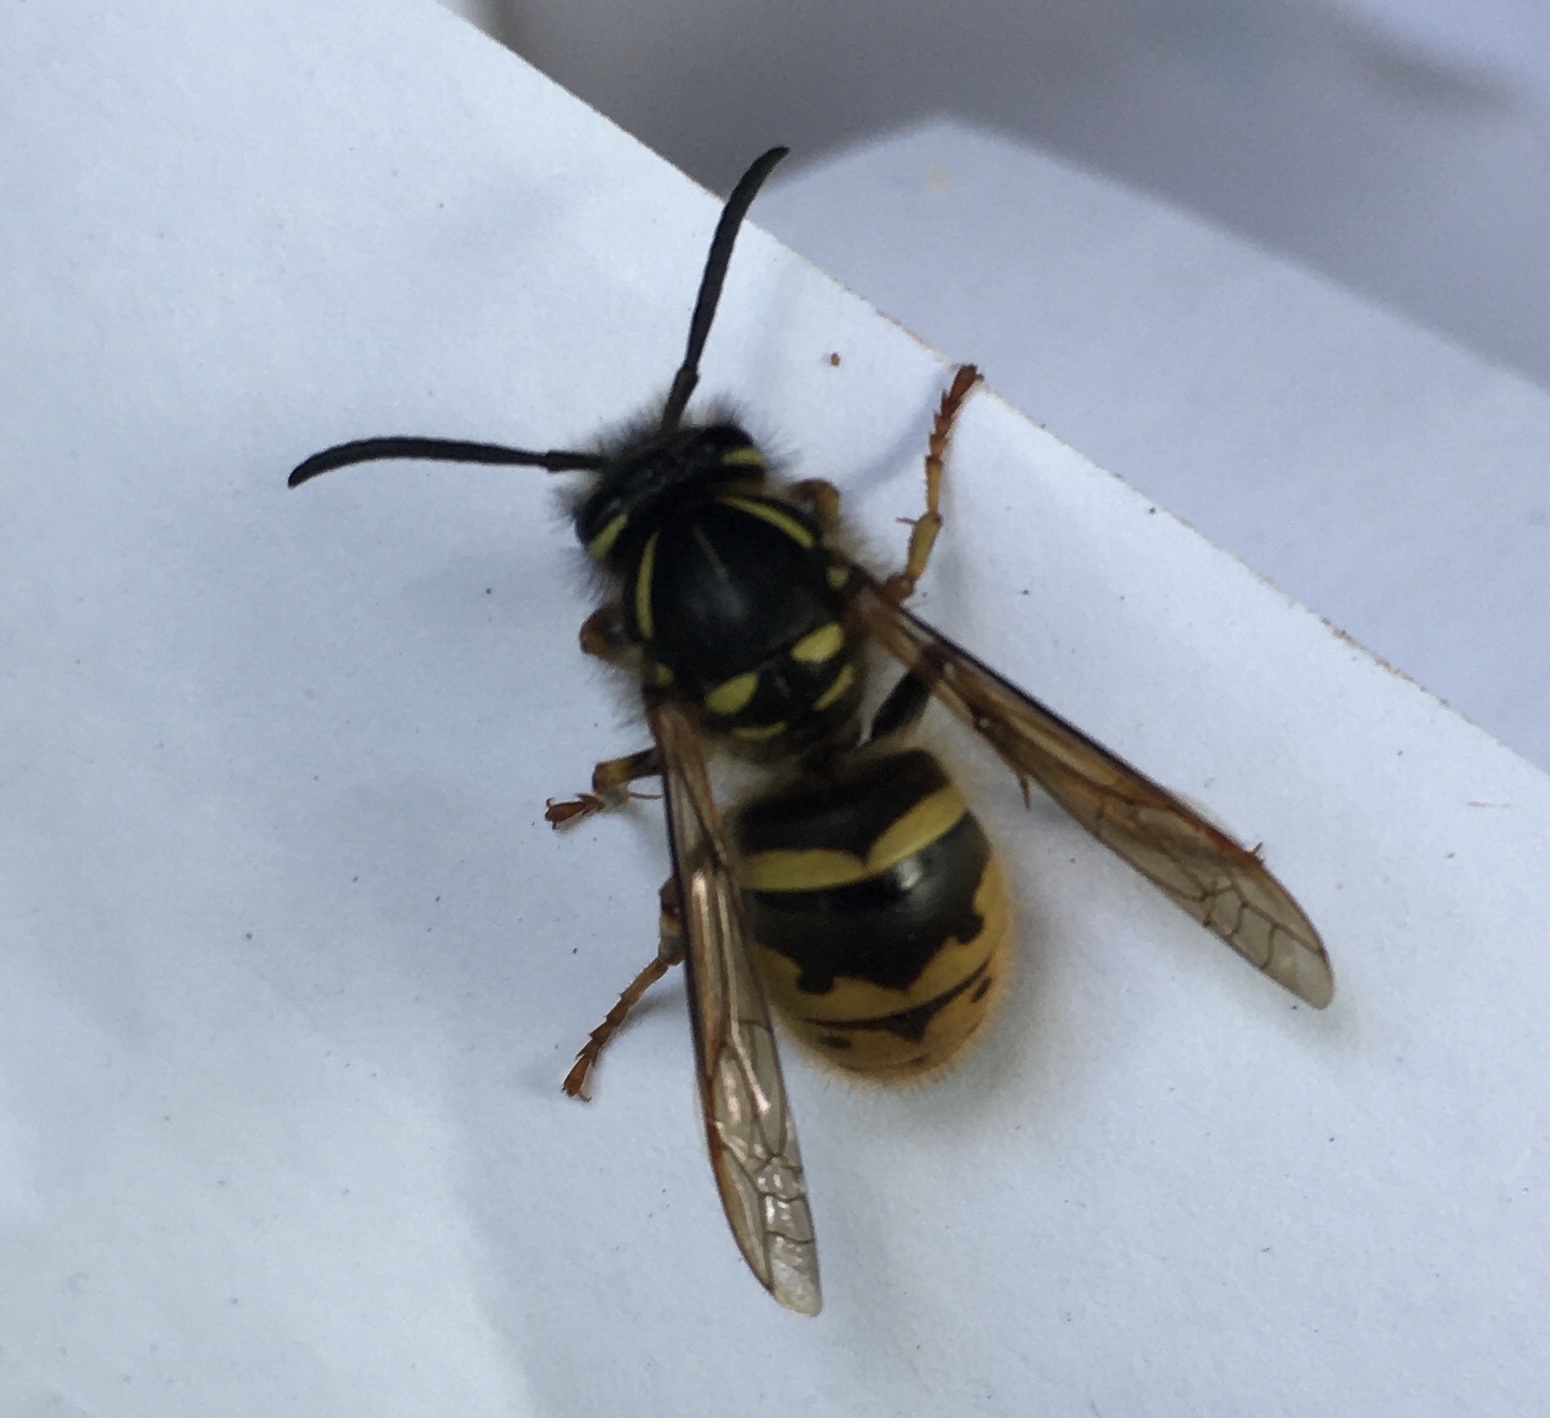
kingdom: Animalia
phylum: Arthropoda
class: Insecta
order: Hymenoptera
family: Vespidae
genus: Vespula
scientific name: Vespula vulgaris
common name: Common wasp
